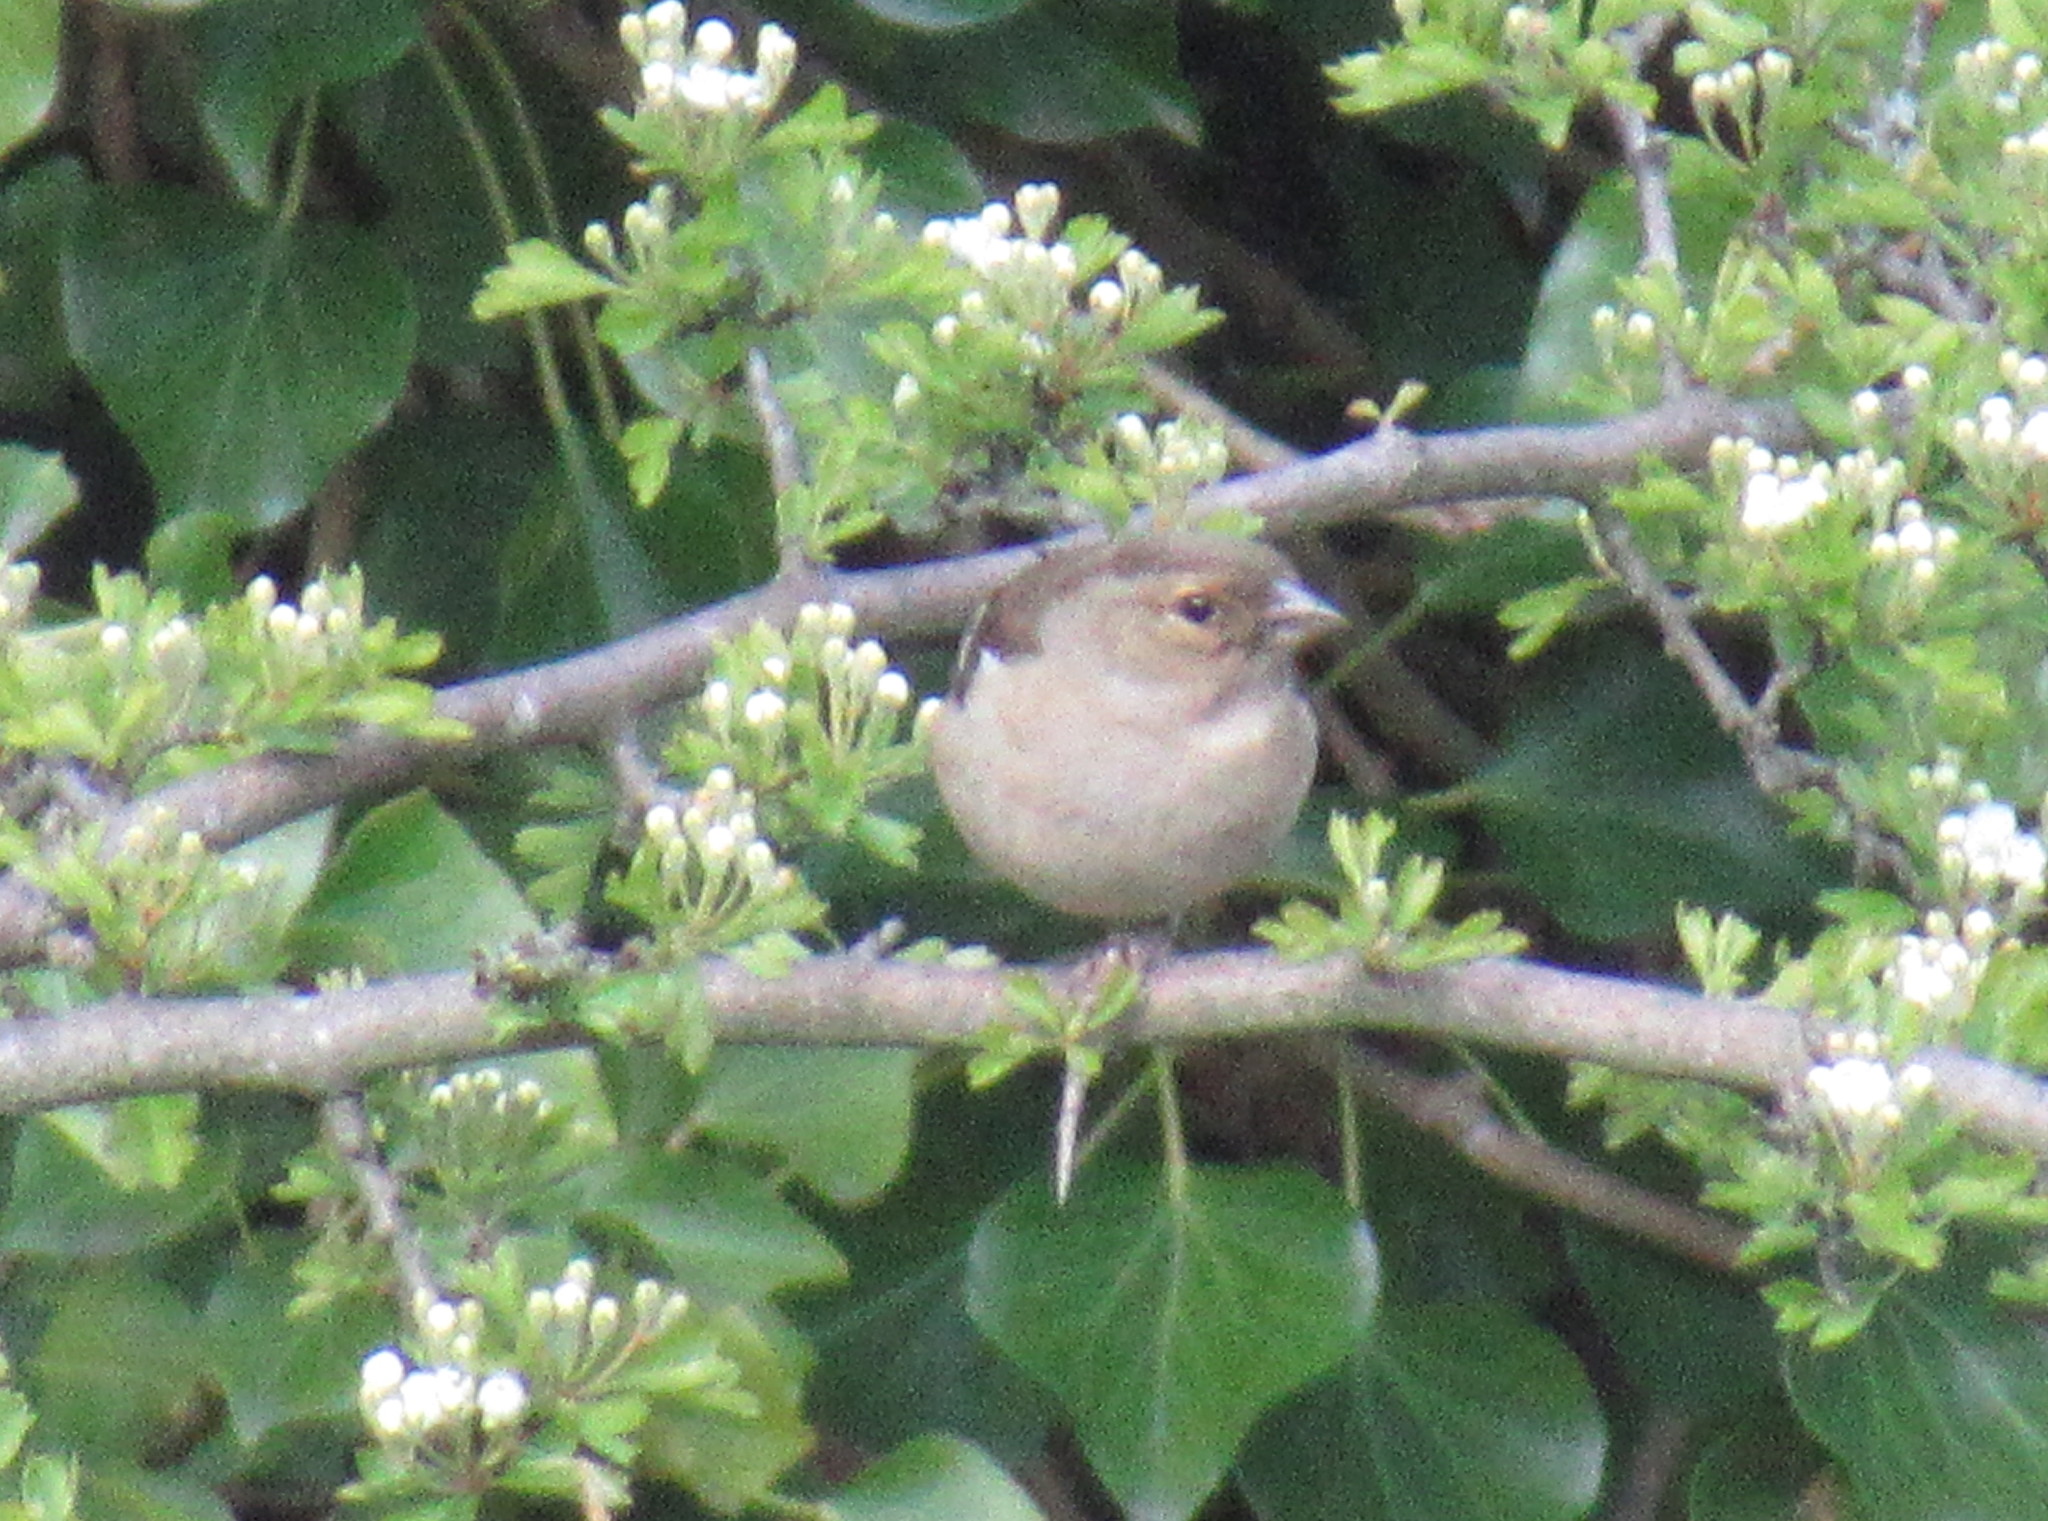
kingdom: Animalia
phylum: Chordata
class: Aves
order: Passeriformes
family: Fringillidae
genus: Fringilla
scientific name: Fringilla coelebs
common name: Common chaffinch
